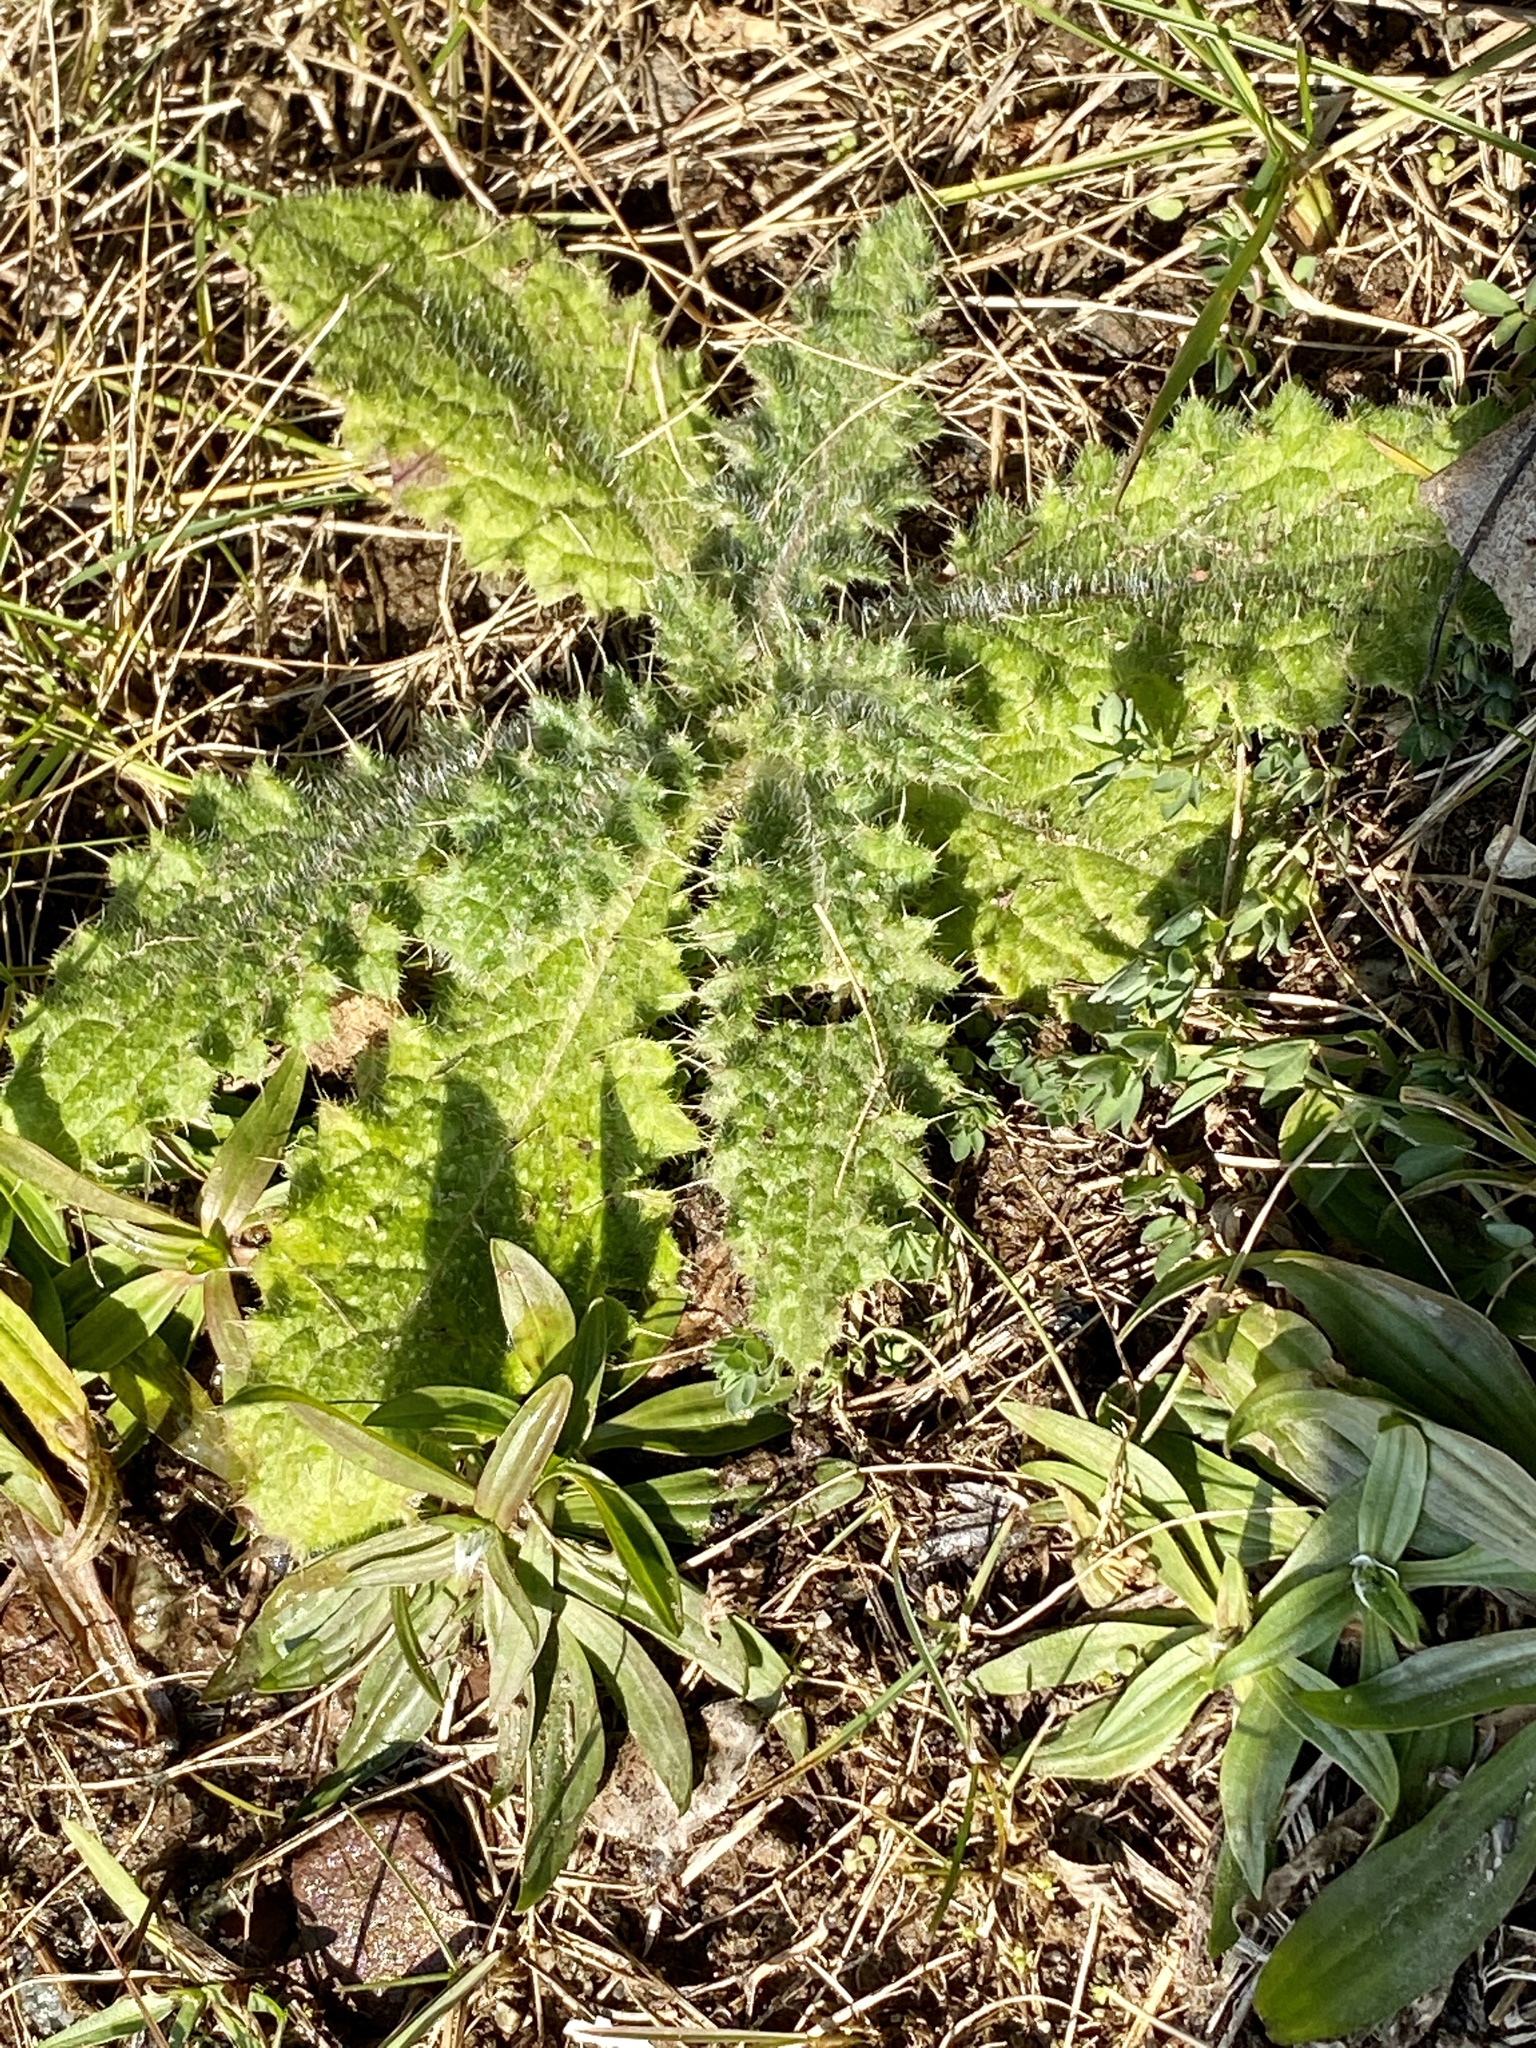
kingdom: Plantae
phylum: Tracheophyta
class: Magnoliopsida
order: Asterales
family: Asteraceae
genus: Cirsium
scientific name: Cirsium vulgare
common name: Bull thistle
